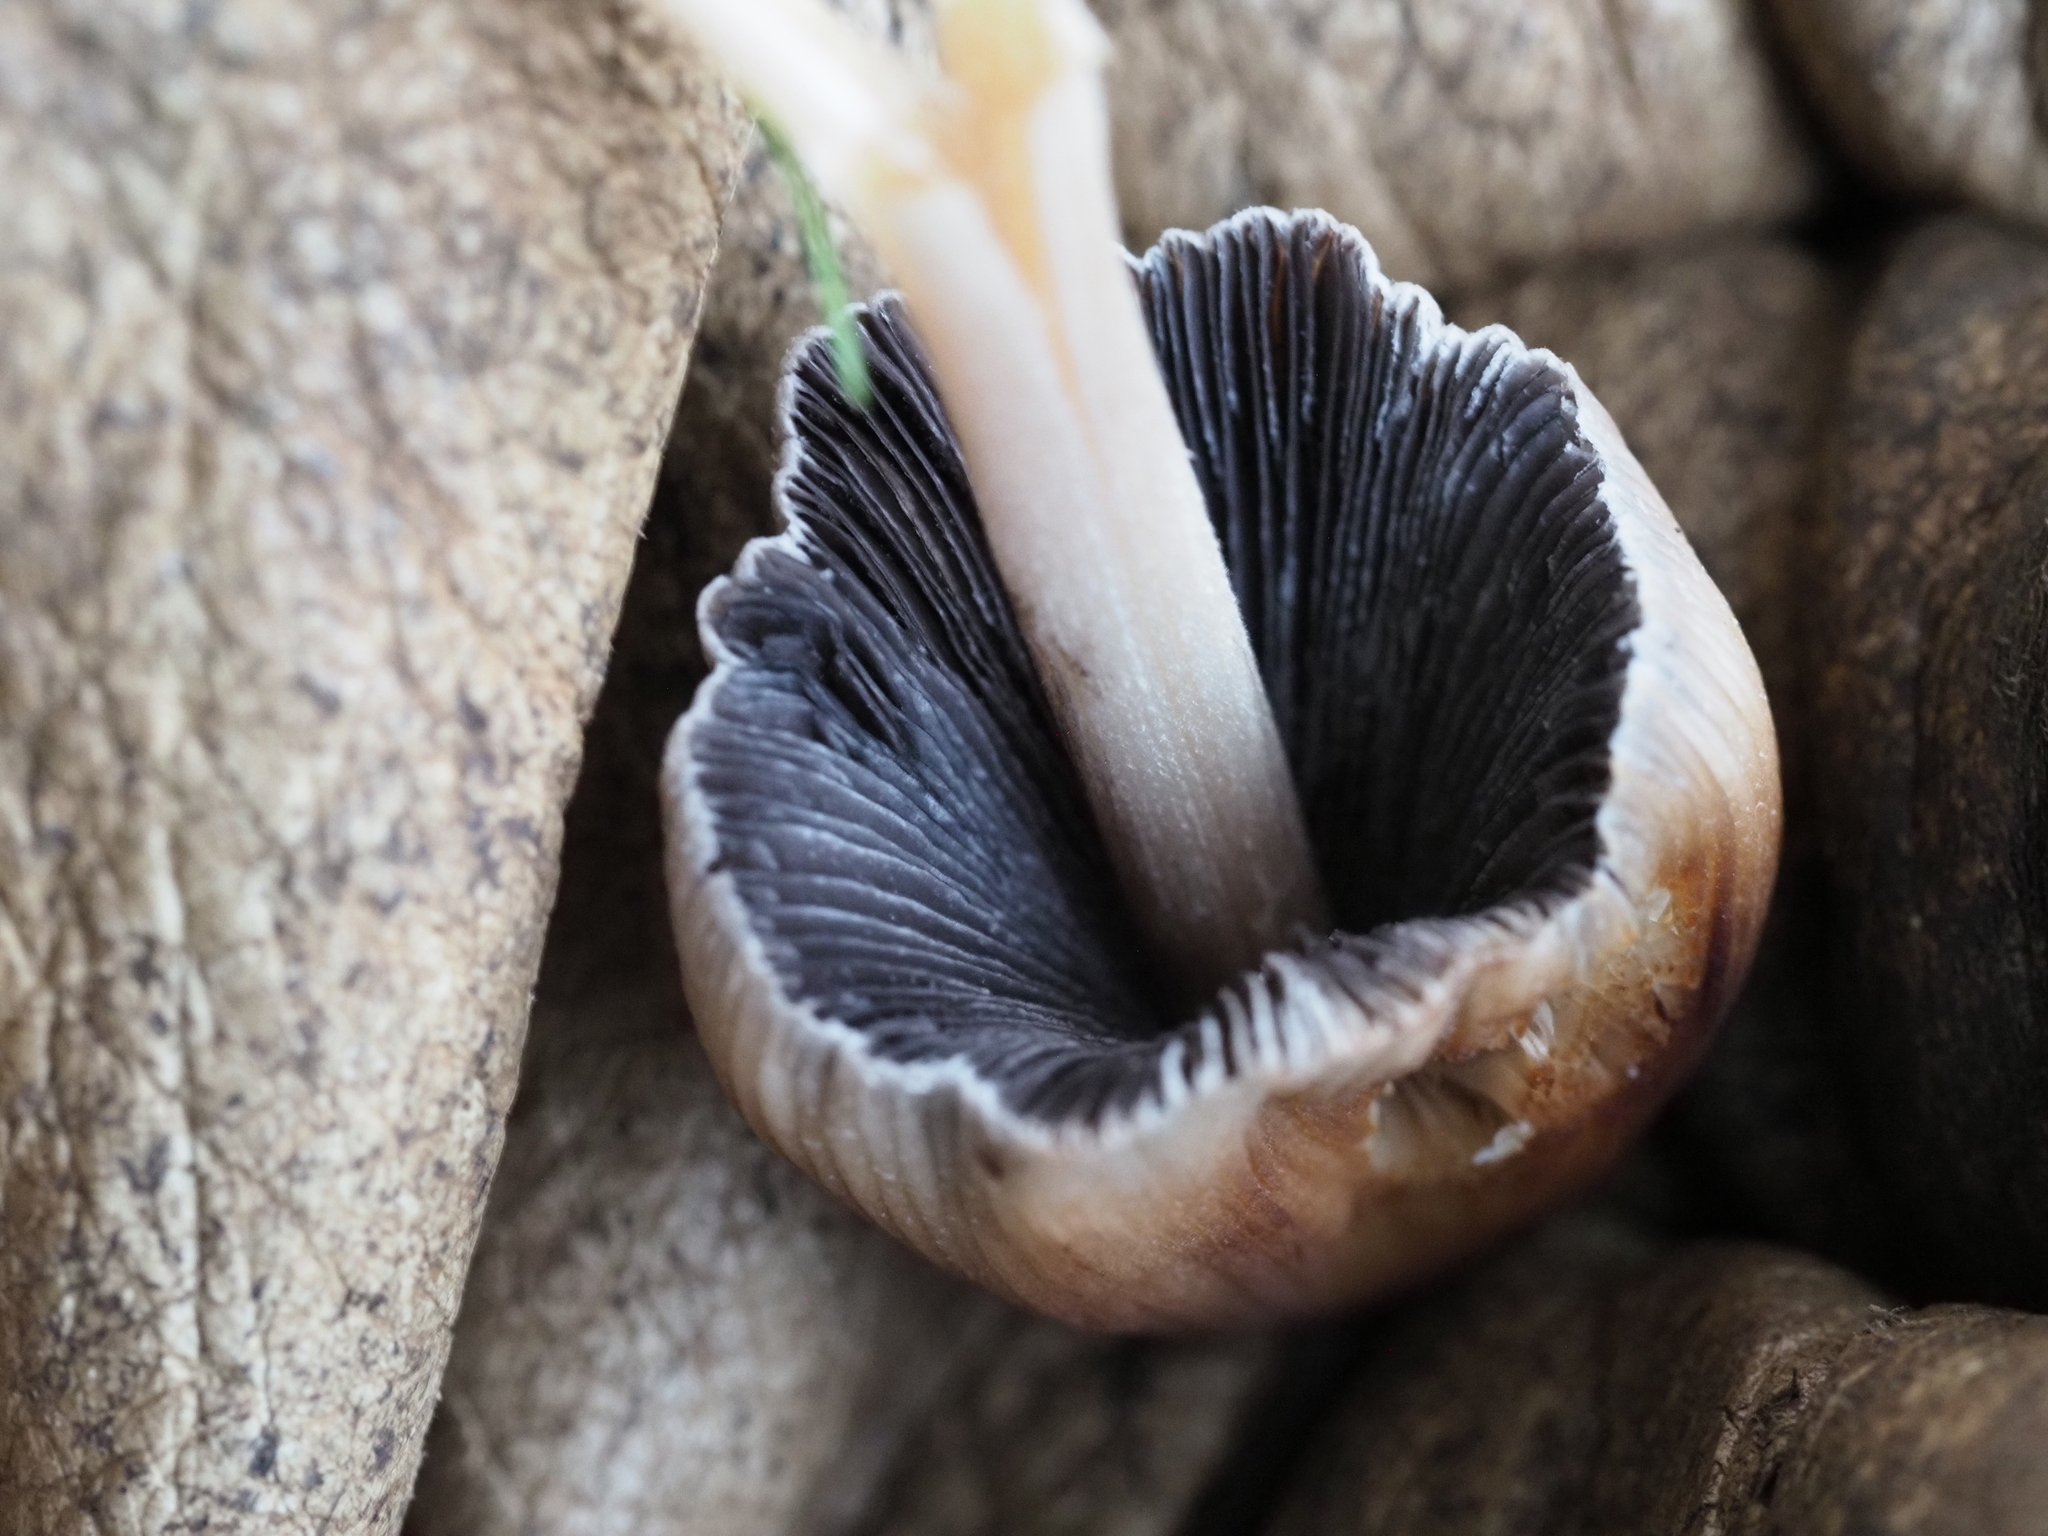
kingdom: Fungi
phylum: Basidiomycota
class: Agaricomycetes
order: Agaricales
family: Psathyrellaceae
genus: Coprinellus
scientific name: Coprinellus micaceus
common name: Glistening ink-cap
